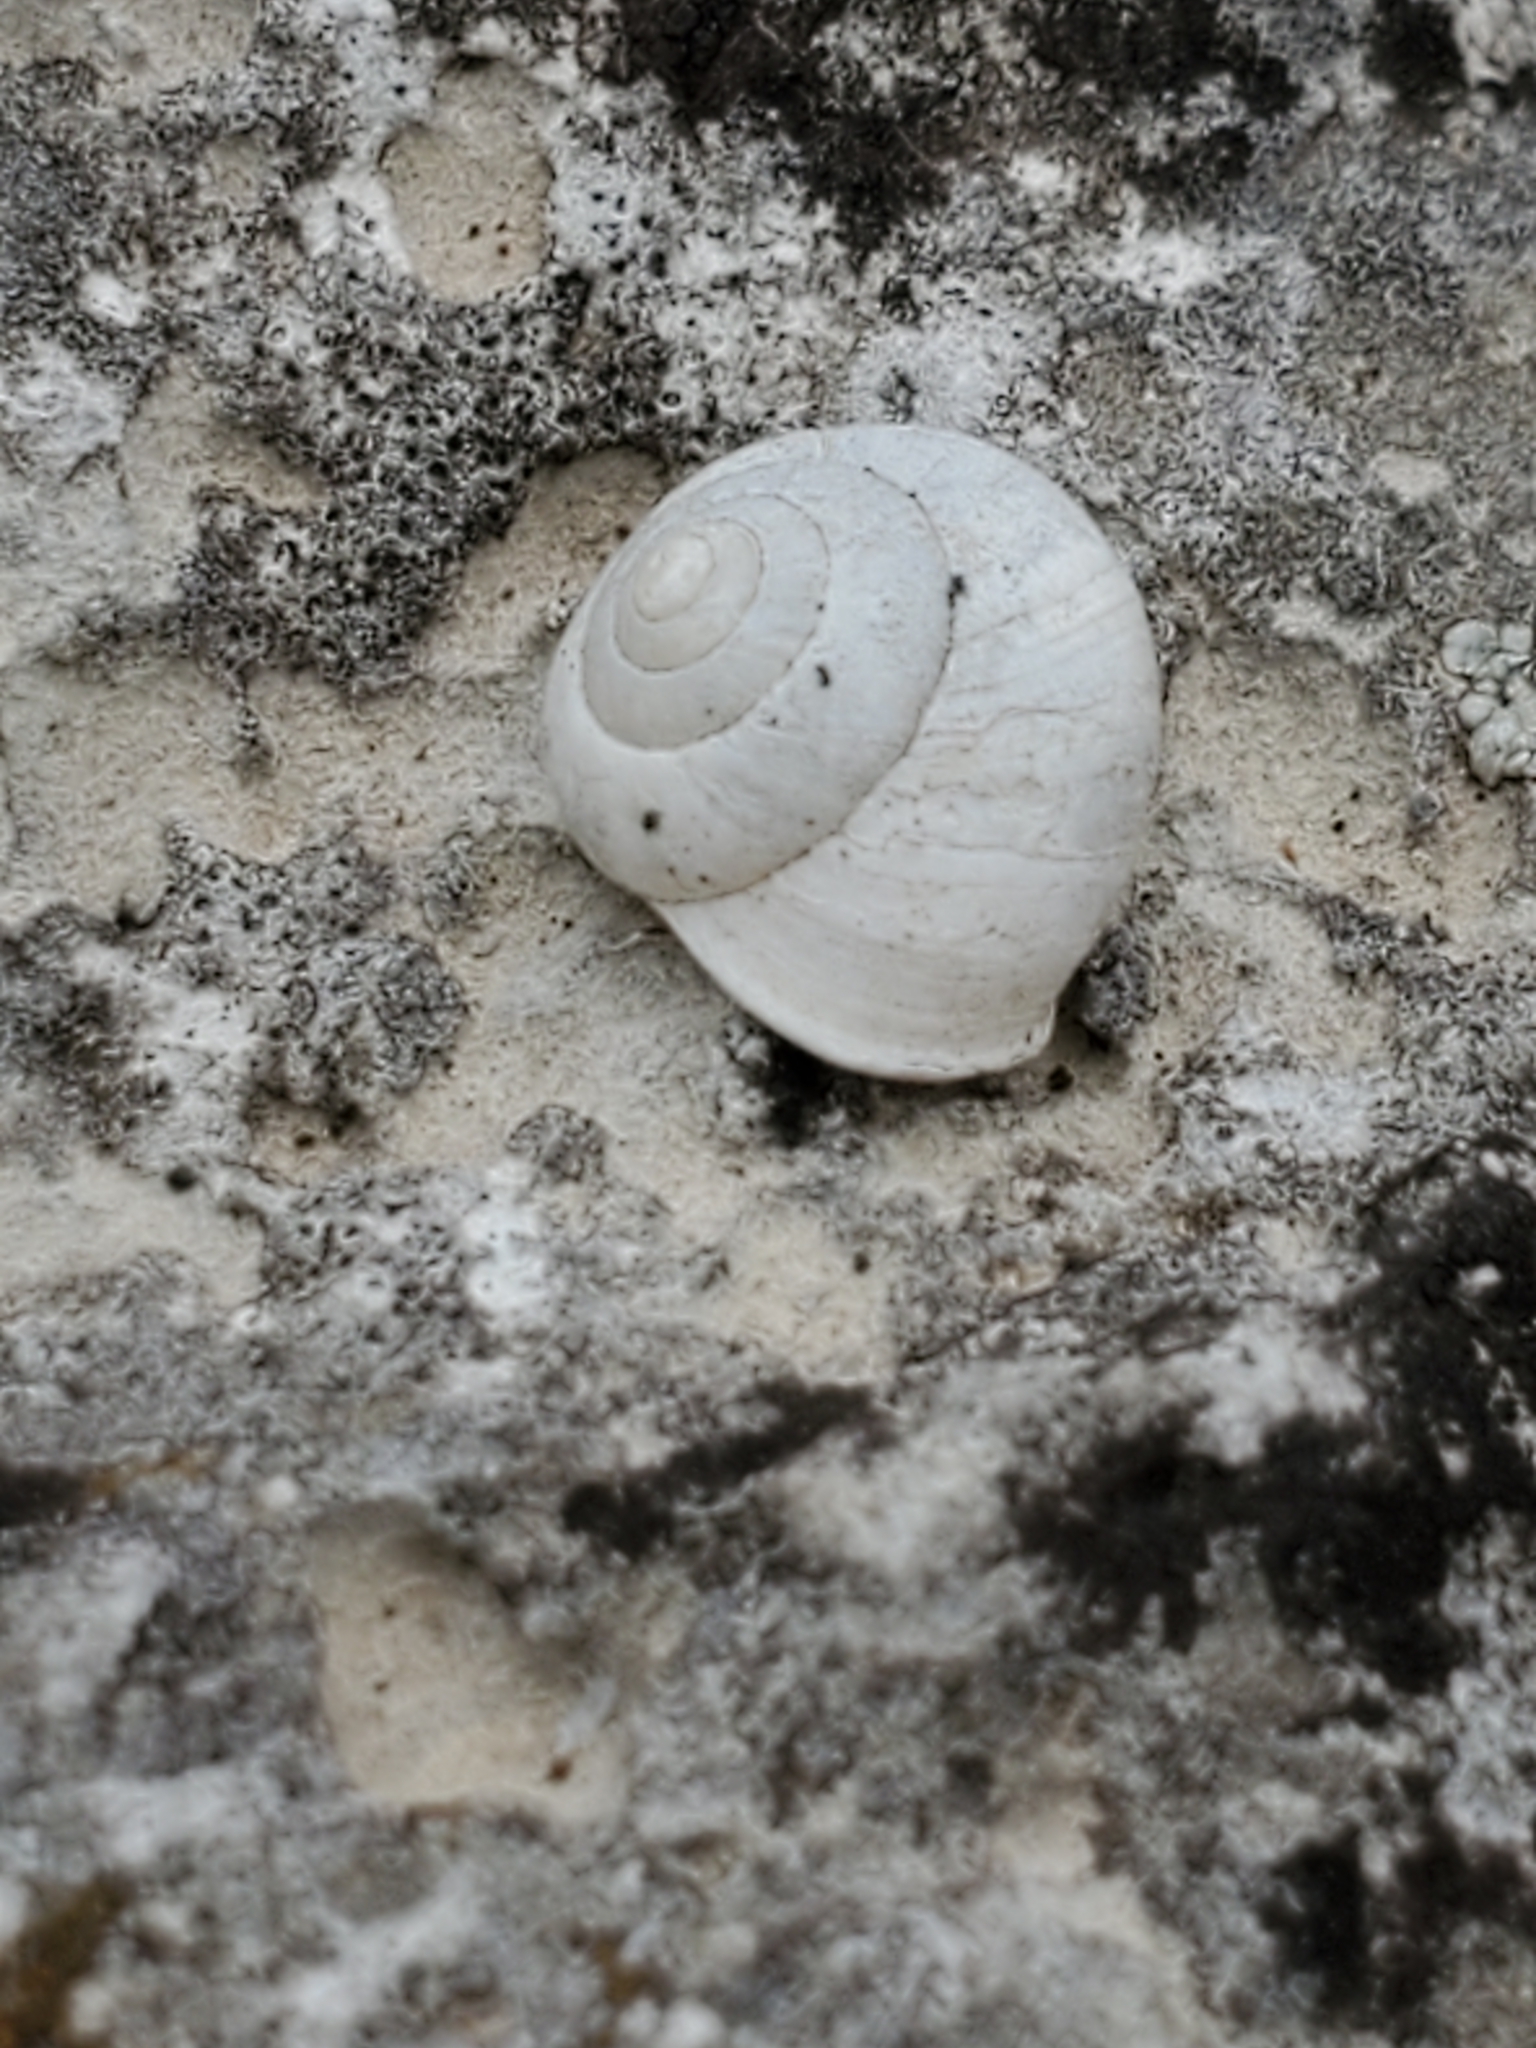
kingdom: Animalia
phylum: Mollusca
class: Gastropoda
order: Cycloneritida
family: Helicinidae
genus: Helicina
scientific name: Helicina orbiculata
